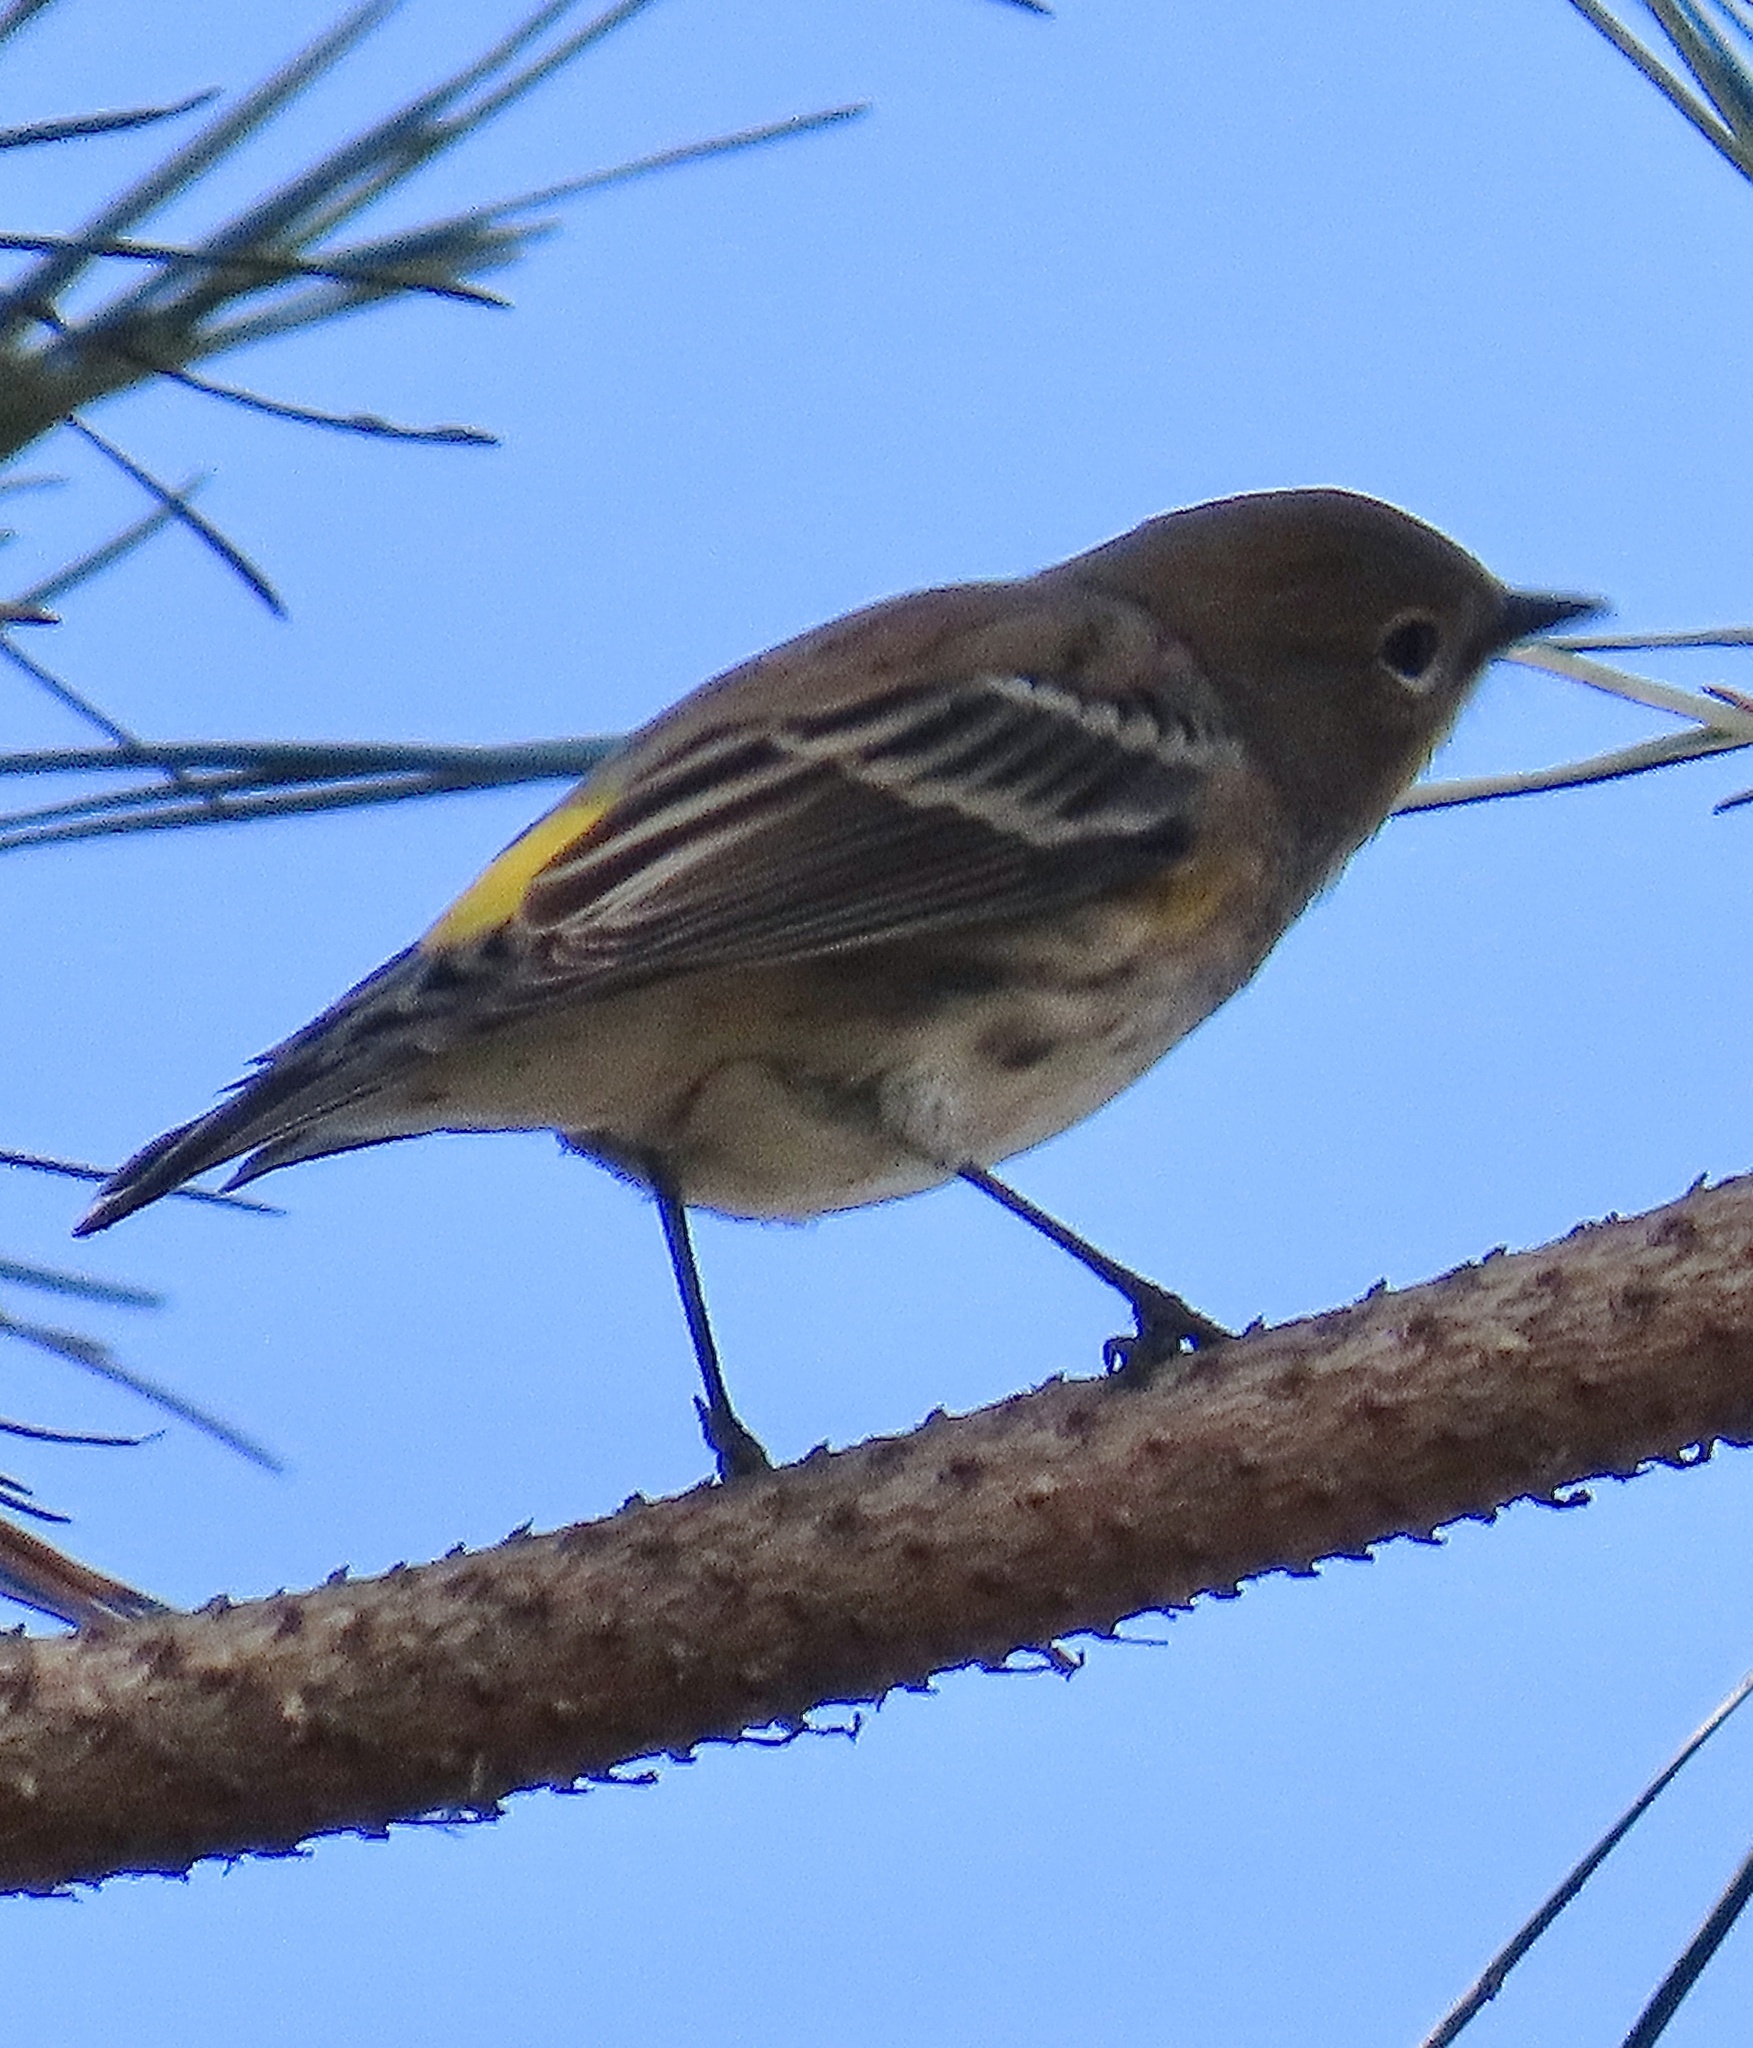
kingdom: Animalia
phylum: Chordata
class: Aves
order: Passeriformes
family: Parulidae
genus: Setophaga
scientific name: Setophaga coronata
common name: Myrtle warbler
